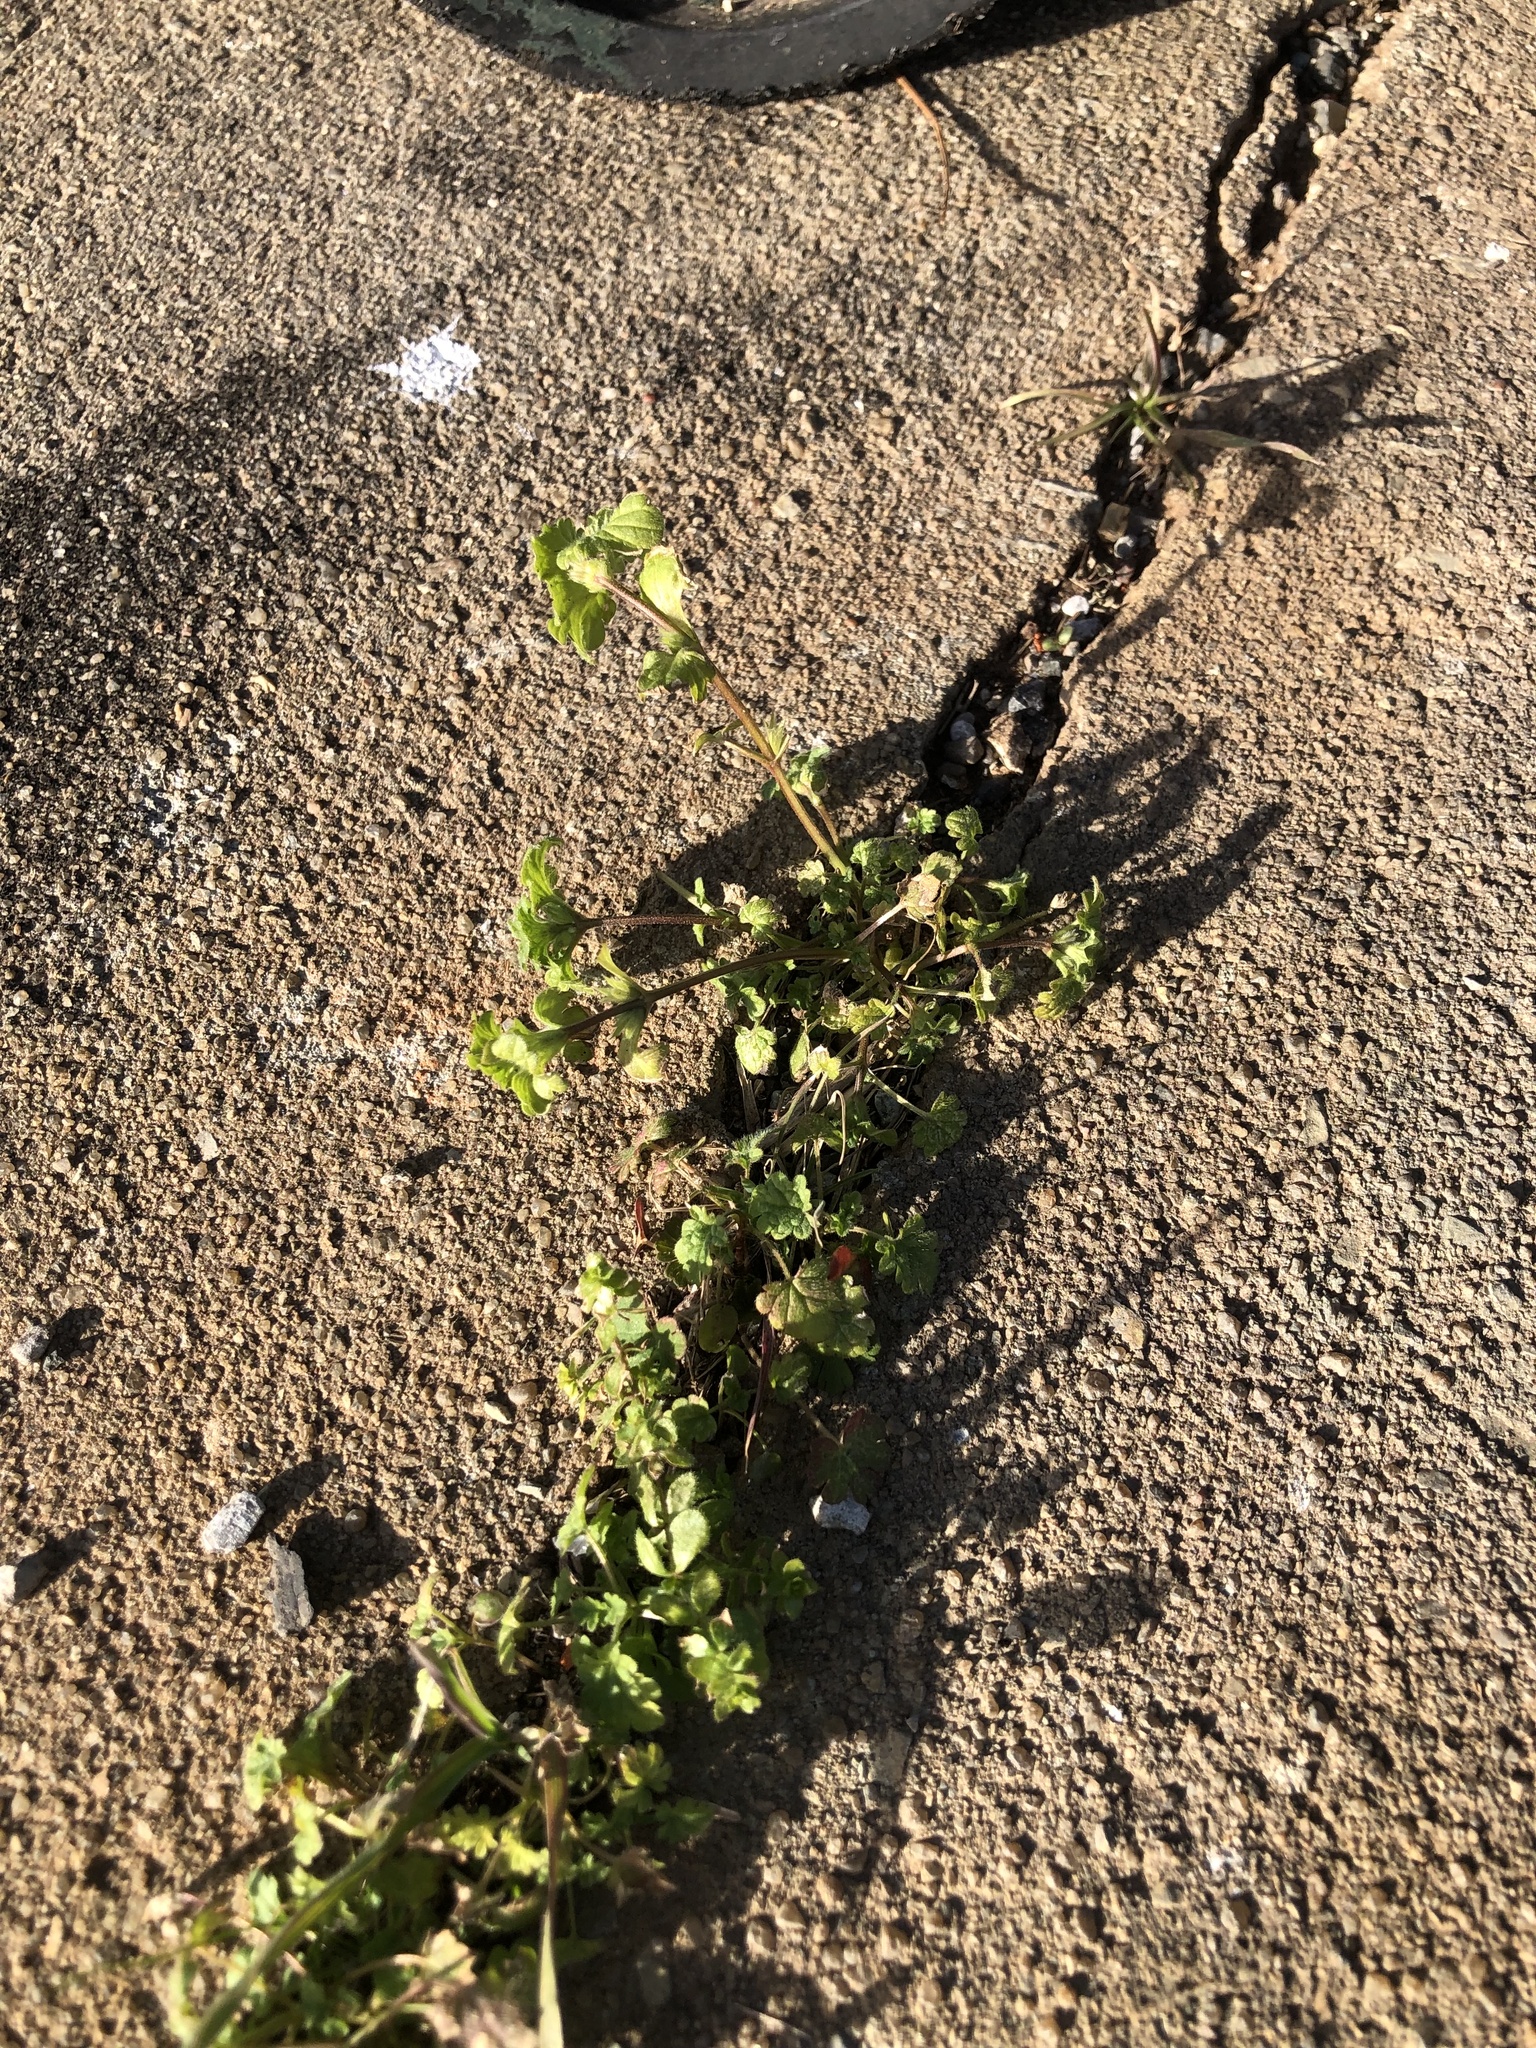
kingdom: Plantae
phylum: Tracheophyta
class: Magnoliopsida
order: Lamiales
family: Lamiaceae
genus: Lamium
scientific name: Lamium amplexicaule
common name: Henbit dead-nettle
